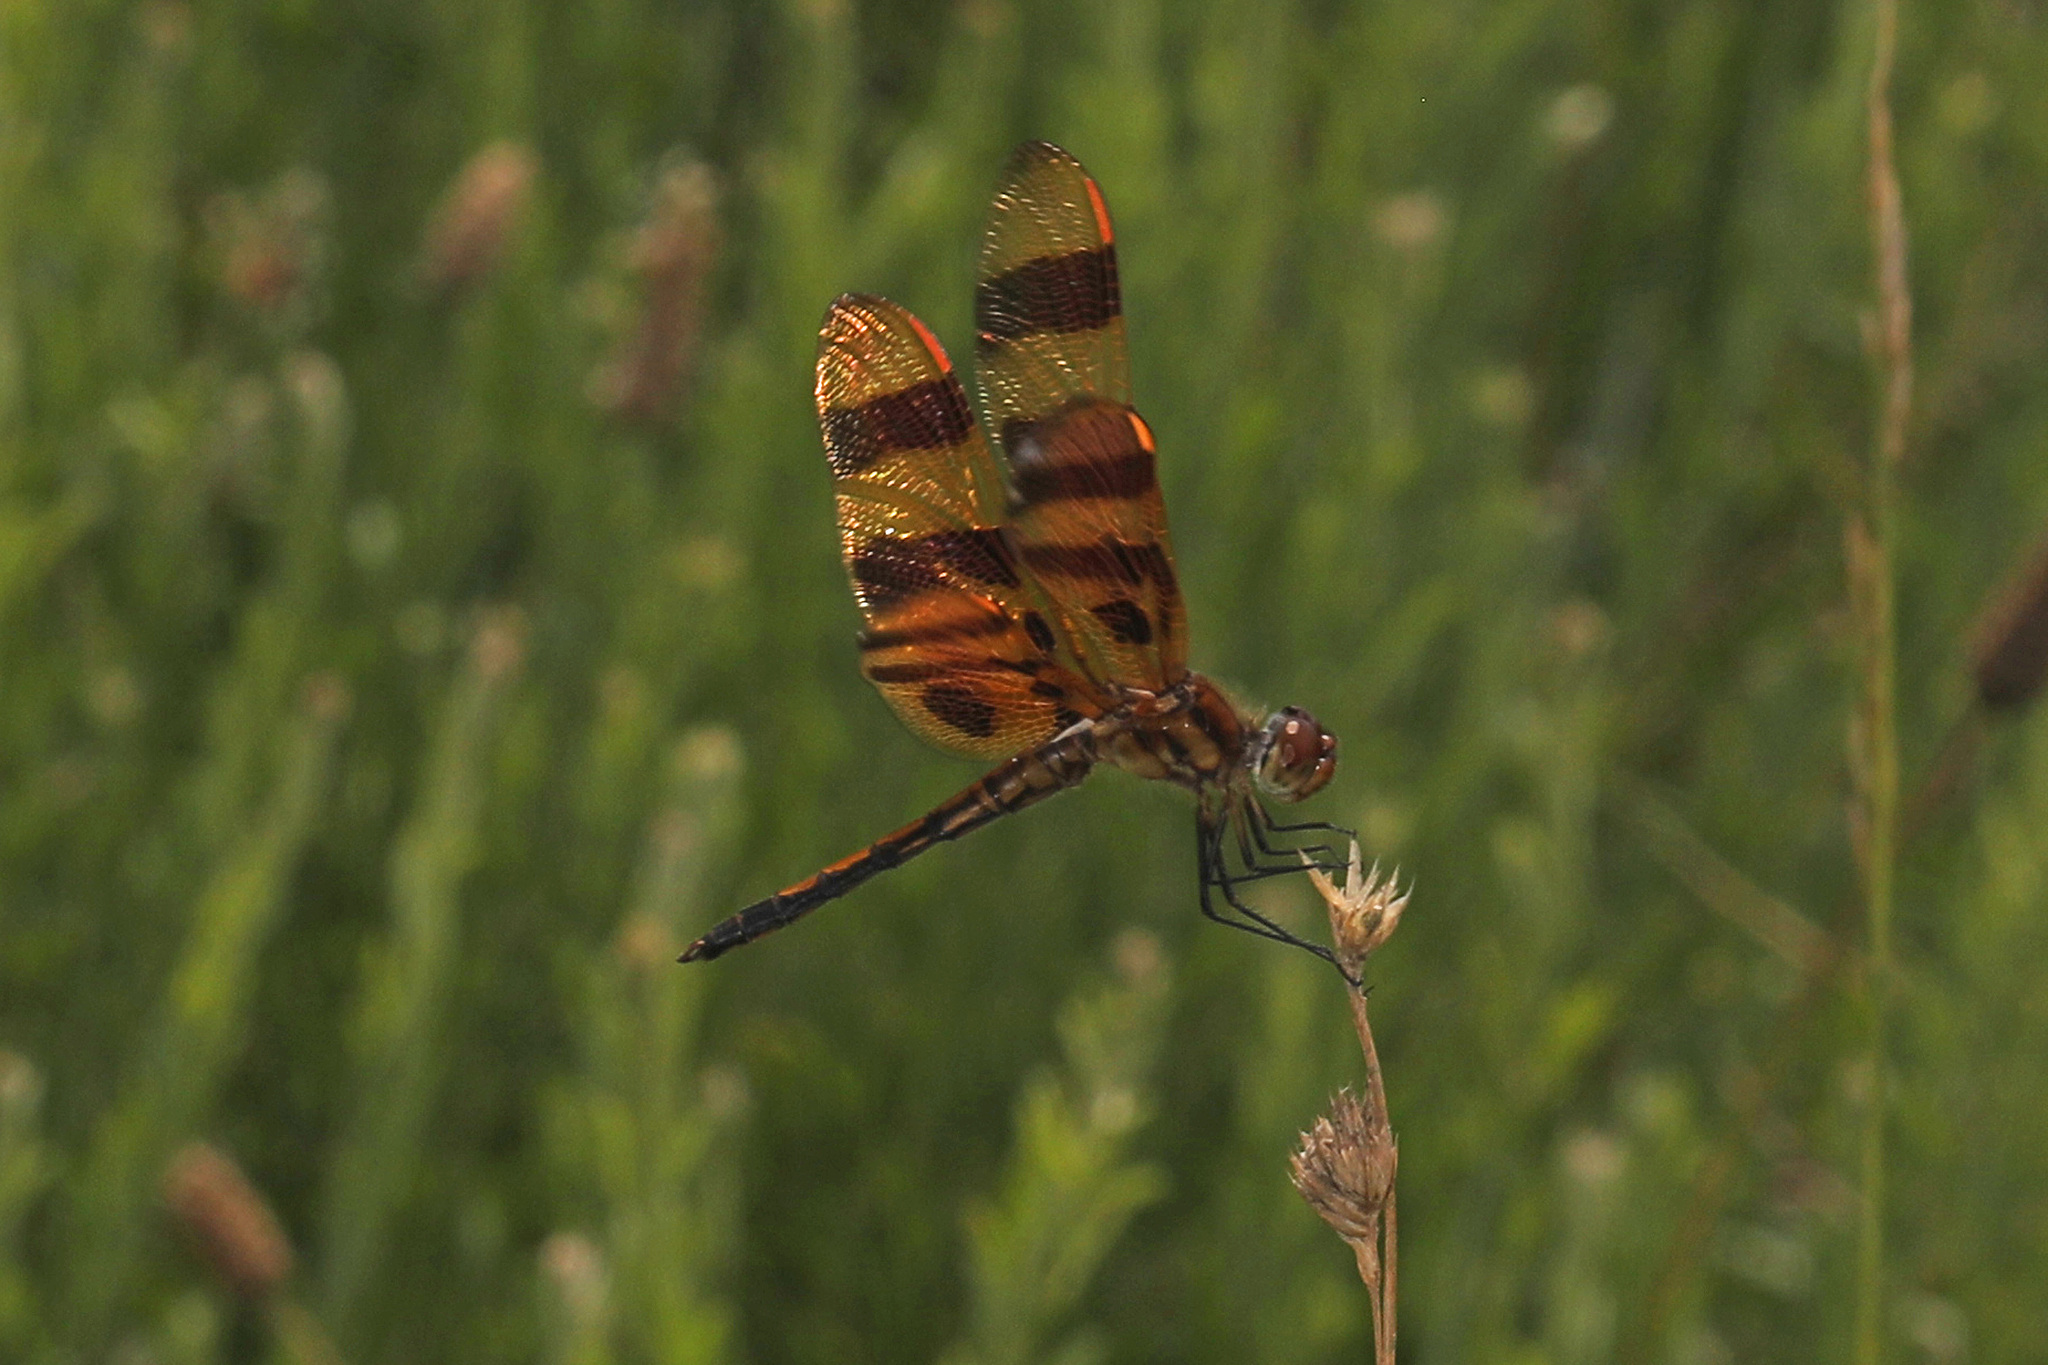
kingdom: Animalia
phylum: Arthropoda
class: Insecta
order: Odonata
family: Libellulidae
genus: Celithemis
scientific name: Celithemis eponina
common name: Halloween pennant
